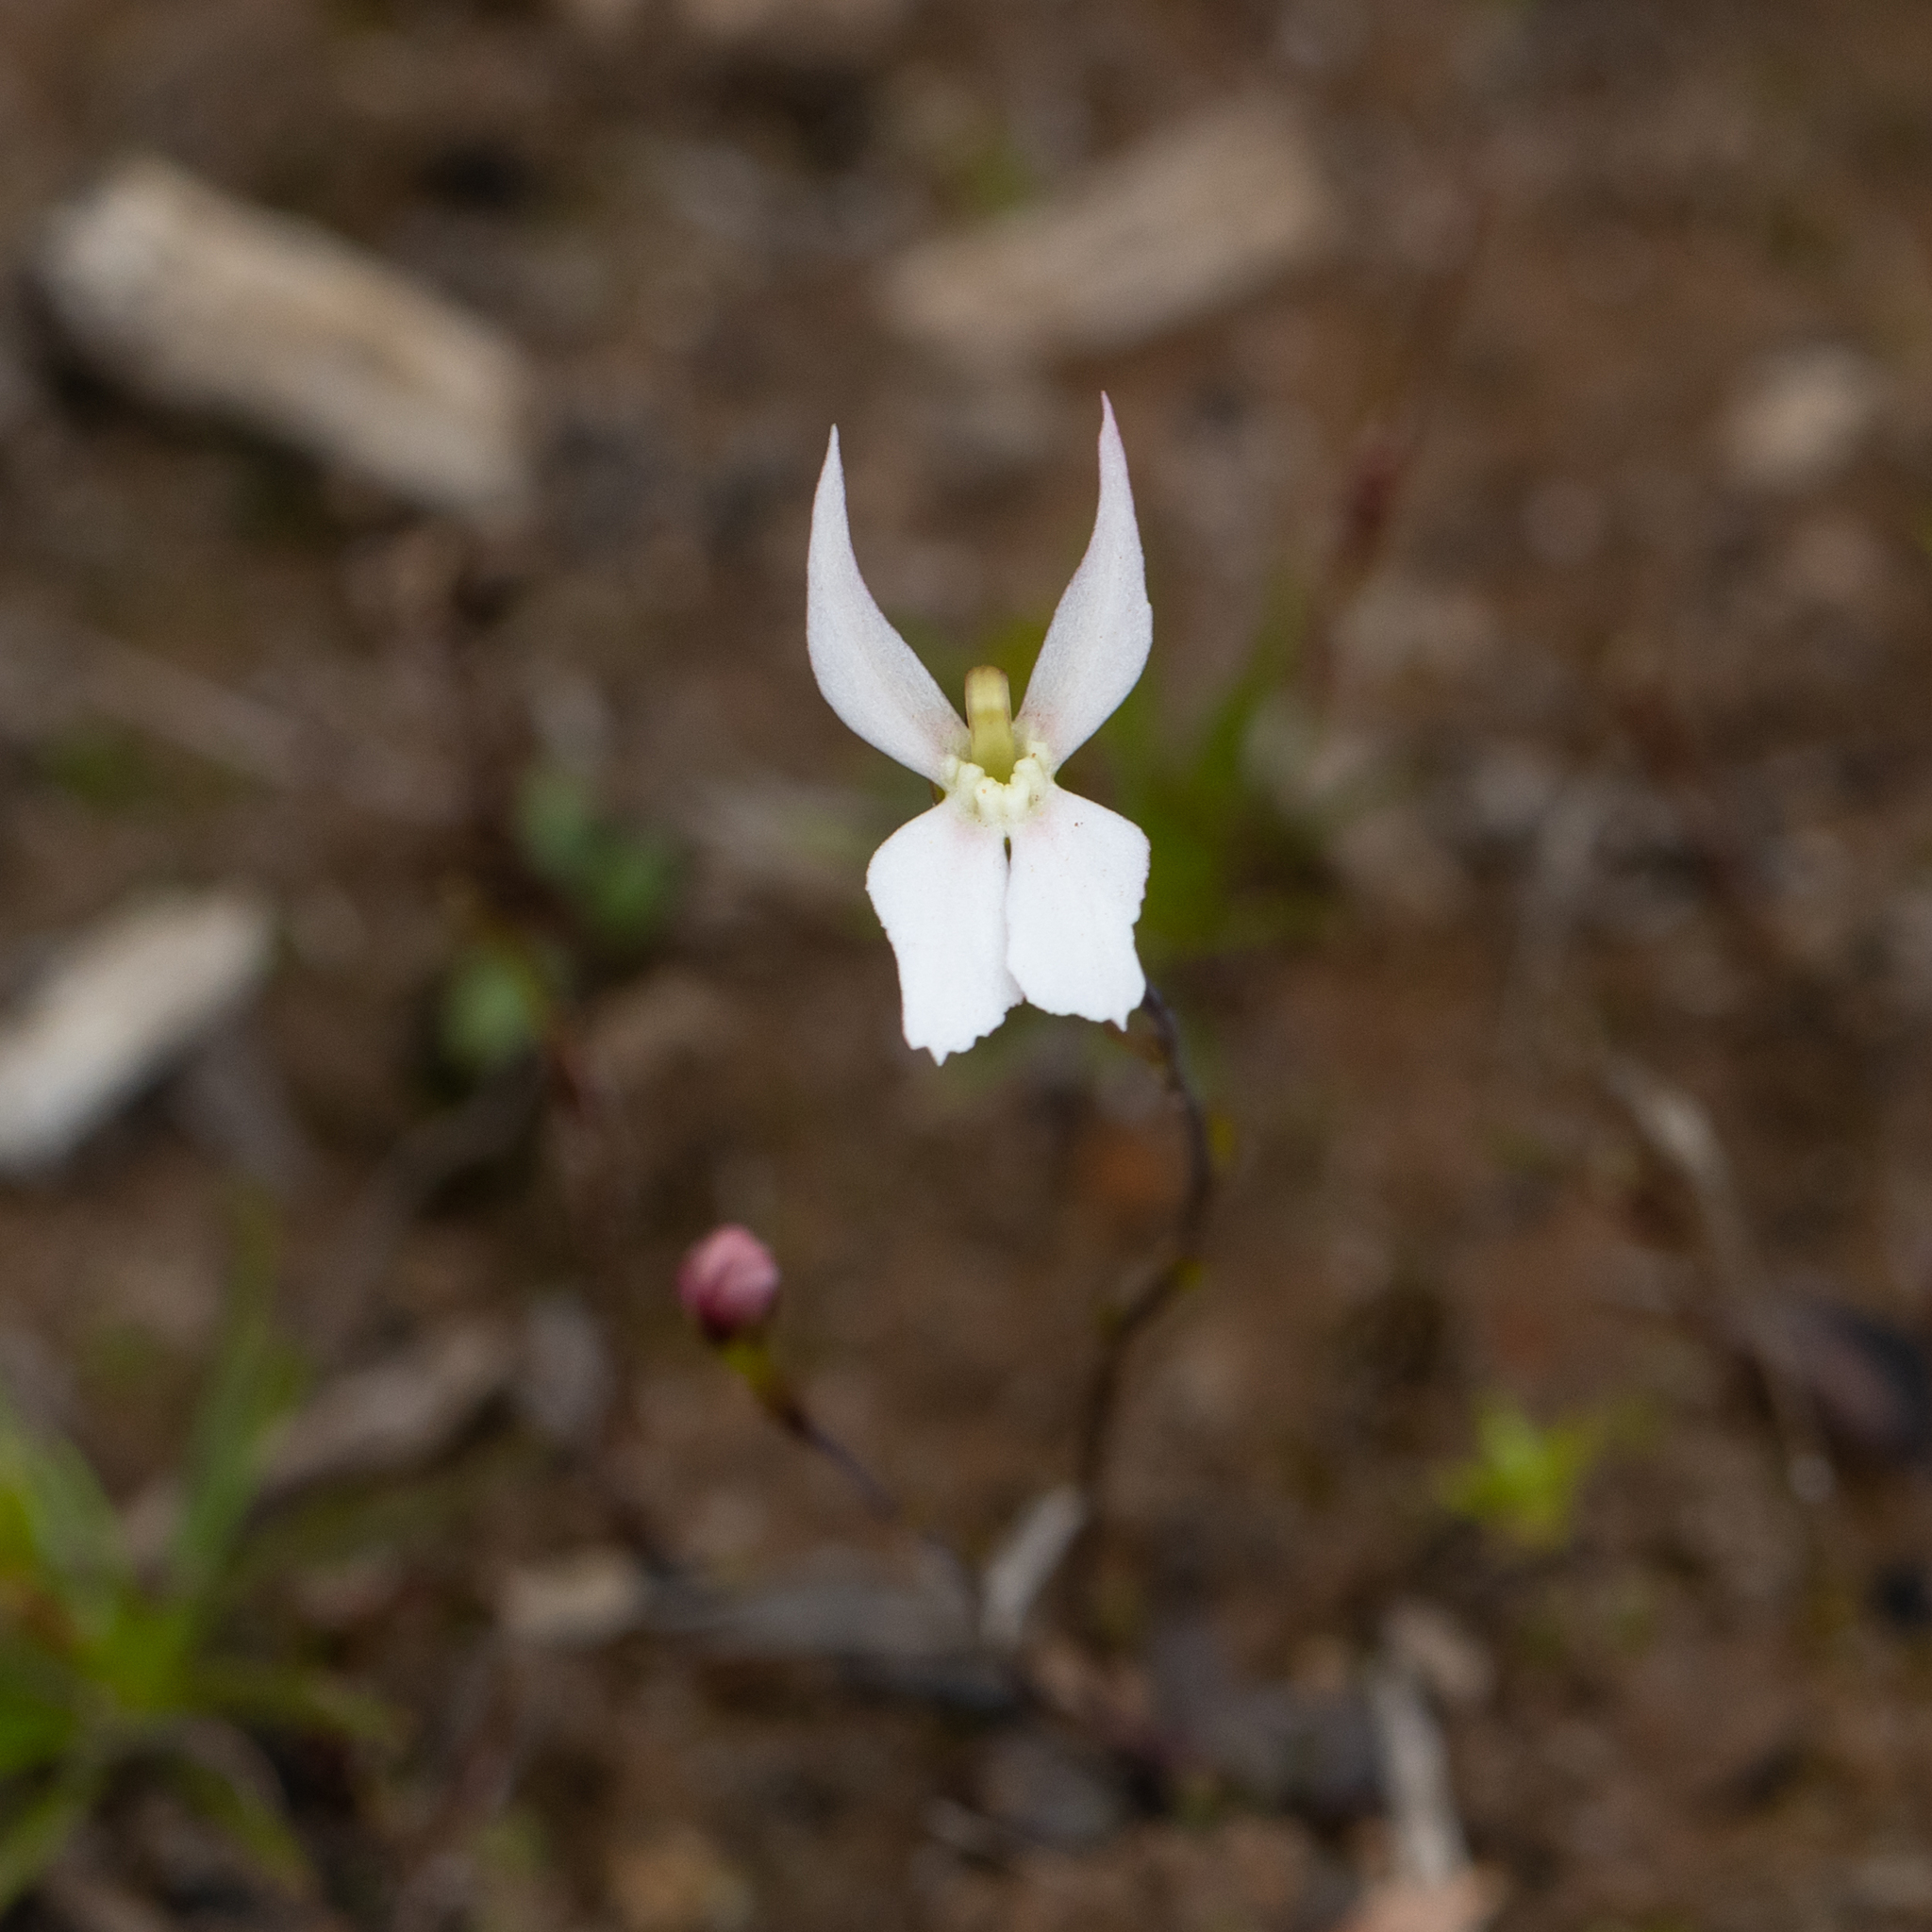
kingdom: Plantae
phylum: Tracheophyta
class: Magnoliopsida
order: Asterales
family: Stylidiaceae
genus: Stylidium
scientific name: Stylidium petiolare
